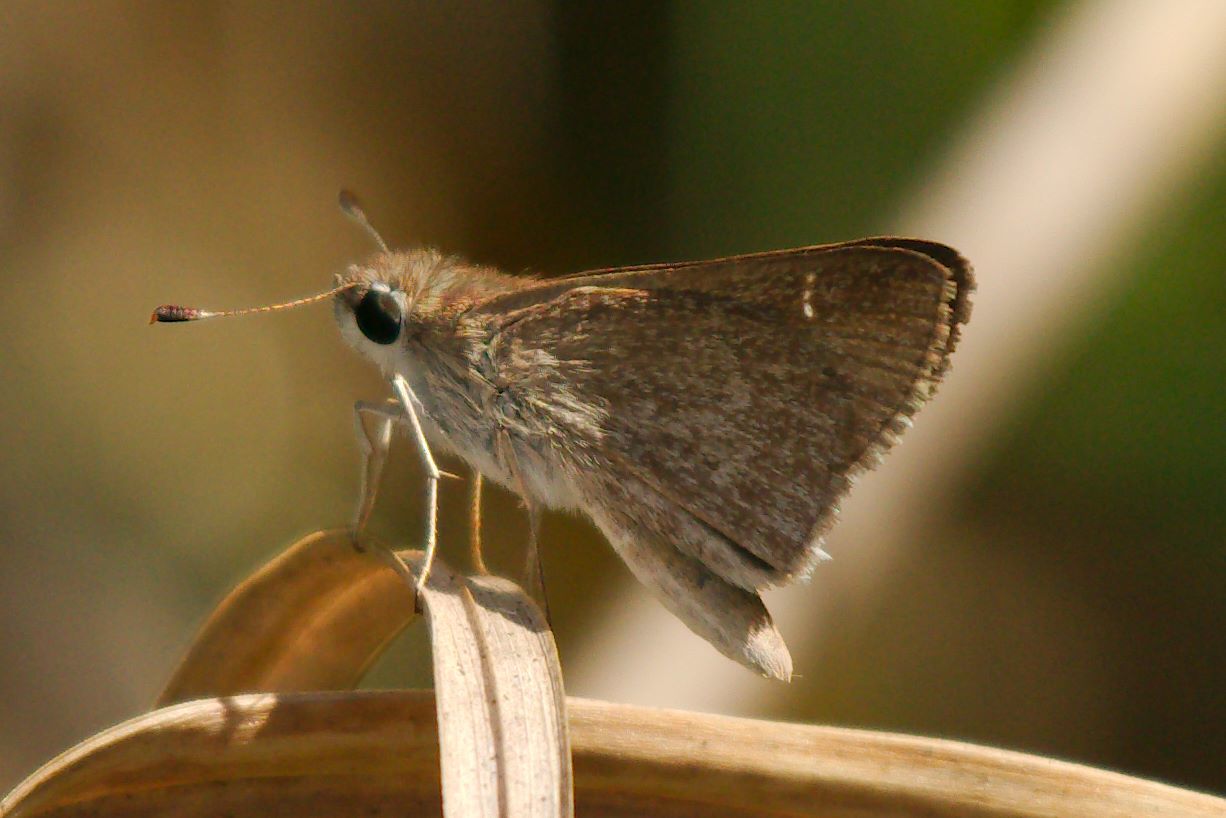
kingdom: Animalia
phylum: Arthropoda
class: Insecta
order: Lepidoptera
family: Hesperiidae
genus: Lerodea
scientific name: Lerodea eufala
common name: Eufala skipper
